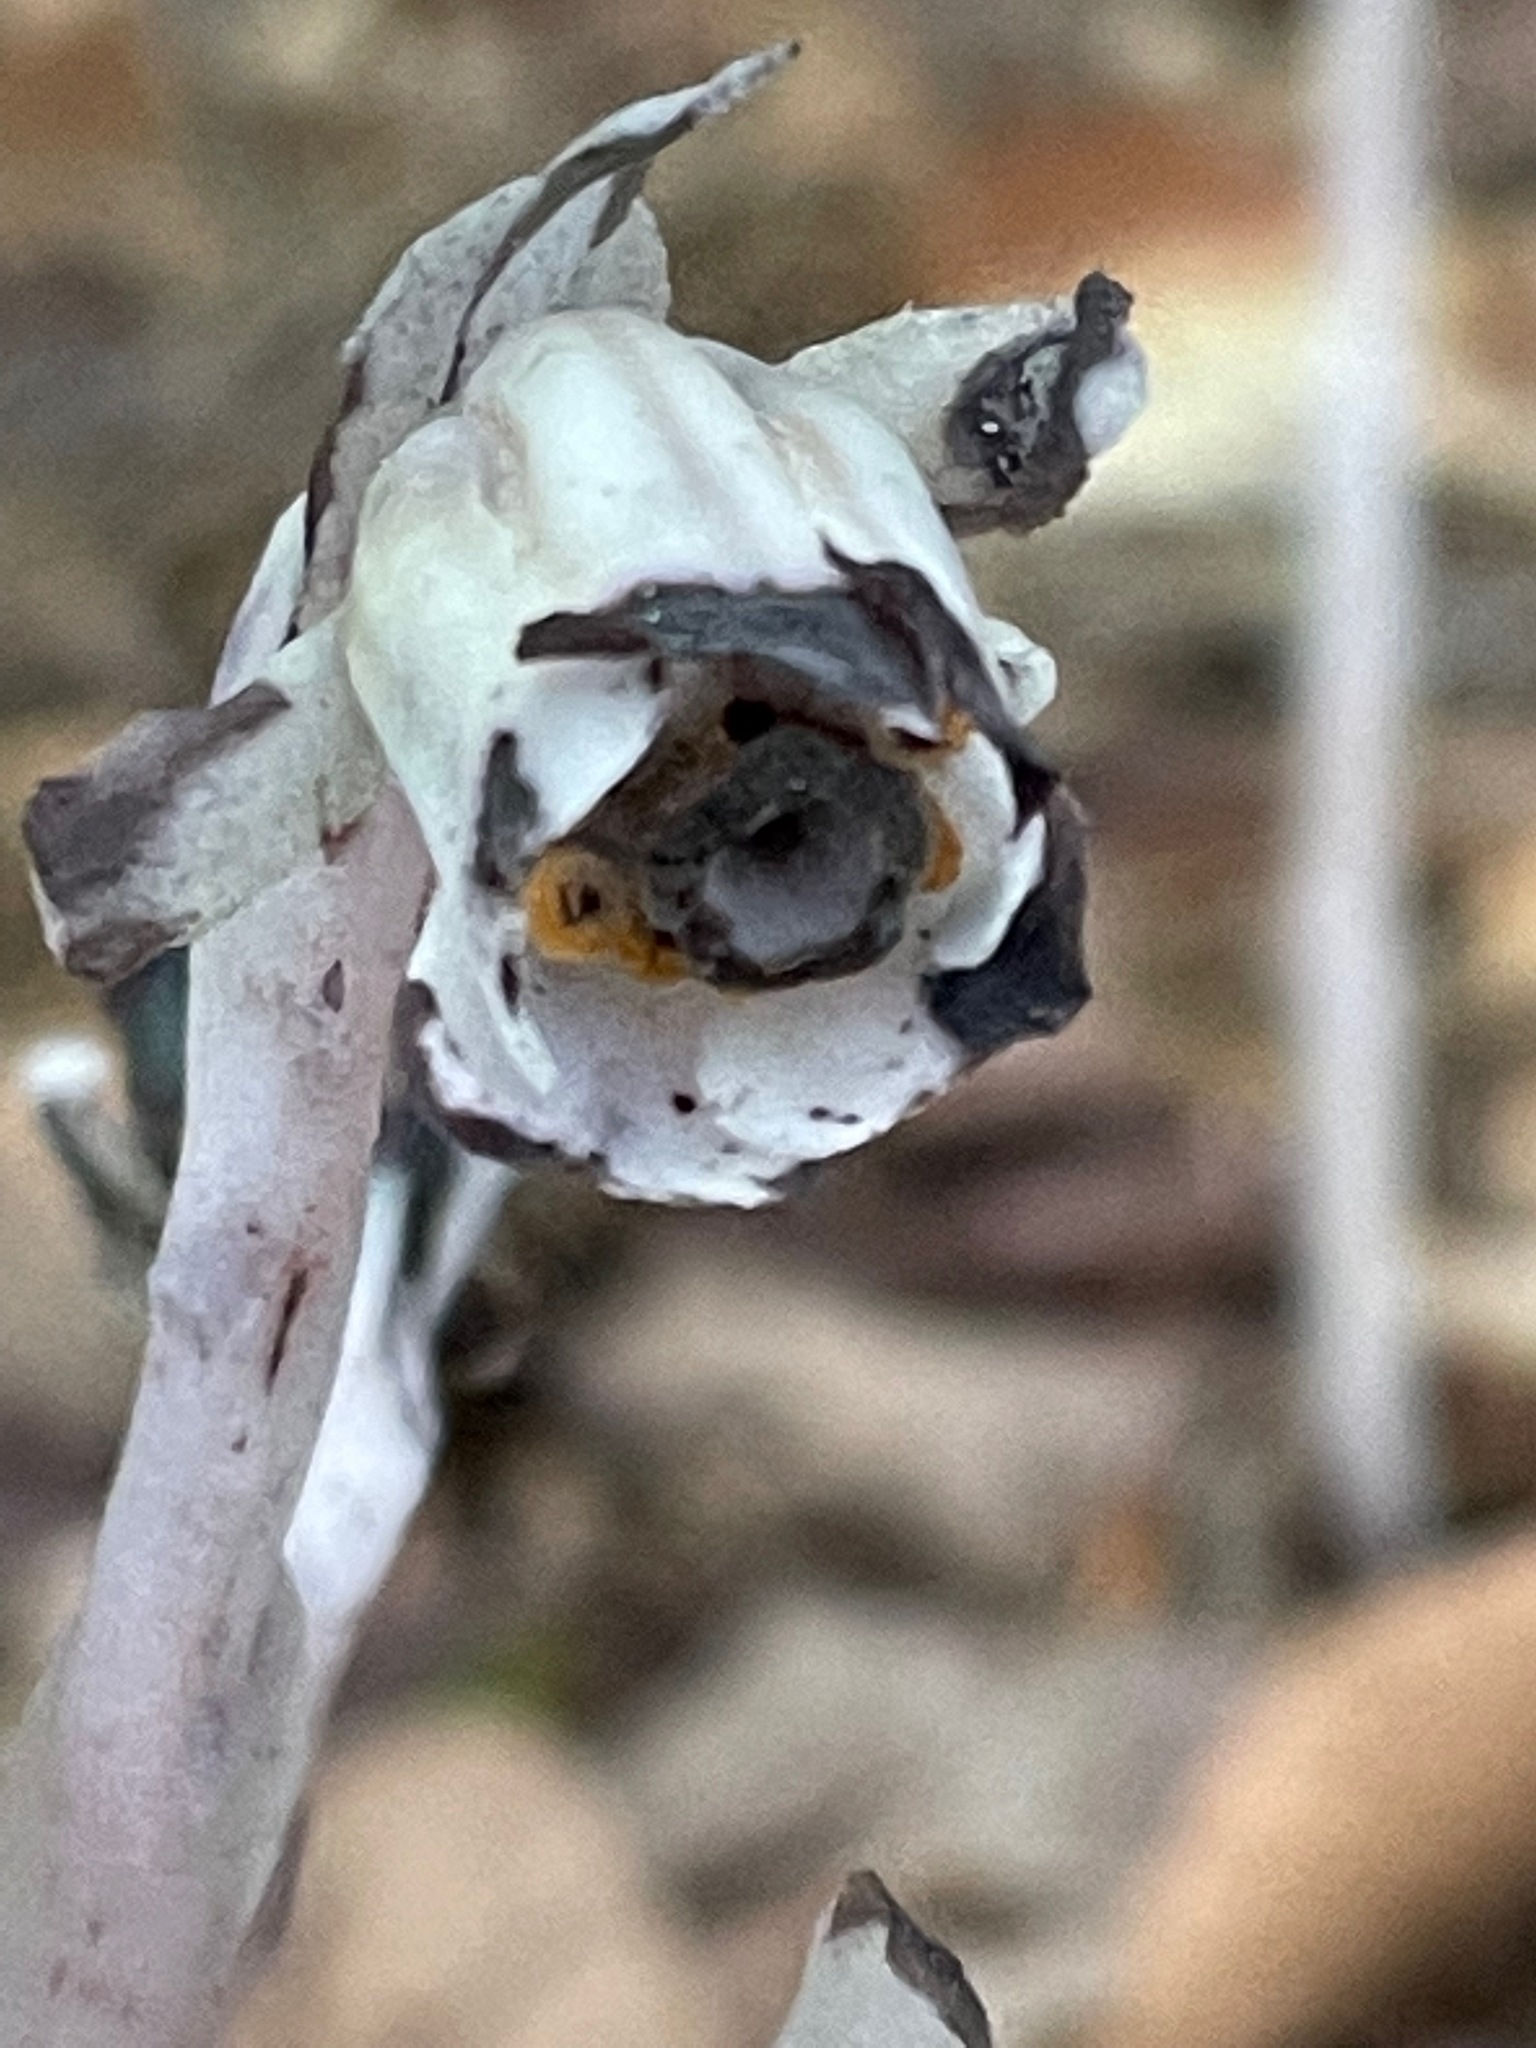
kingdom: Plantae
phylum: Tracheophyta
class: Magnoliopsida
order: Ericales
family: Ericaceae
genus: Monotropa
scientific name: Monotropa uniflora
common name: Convulsion root
